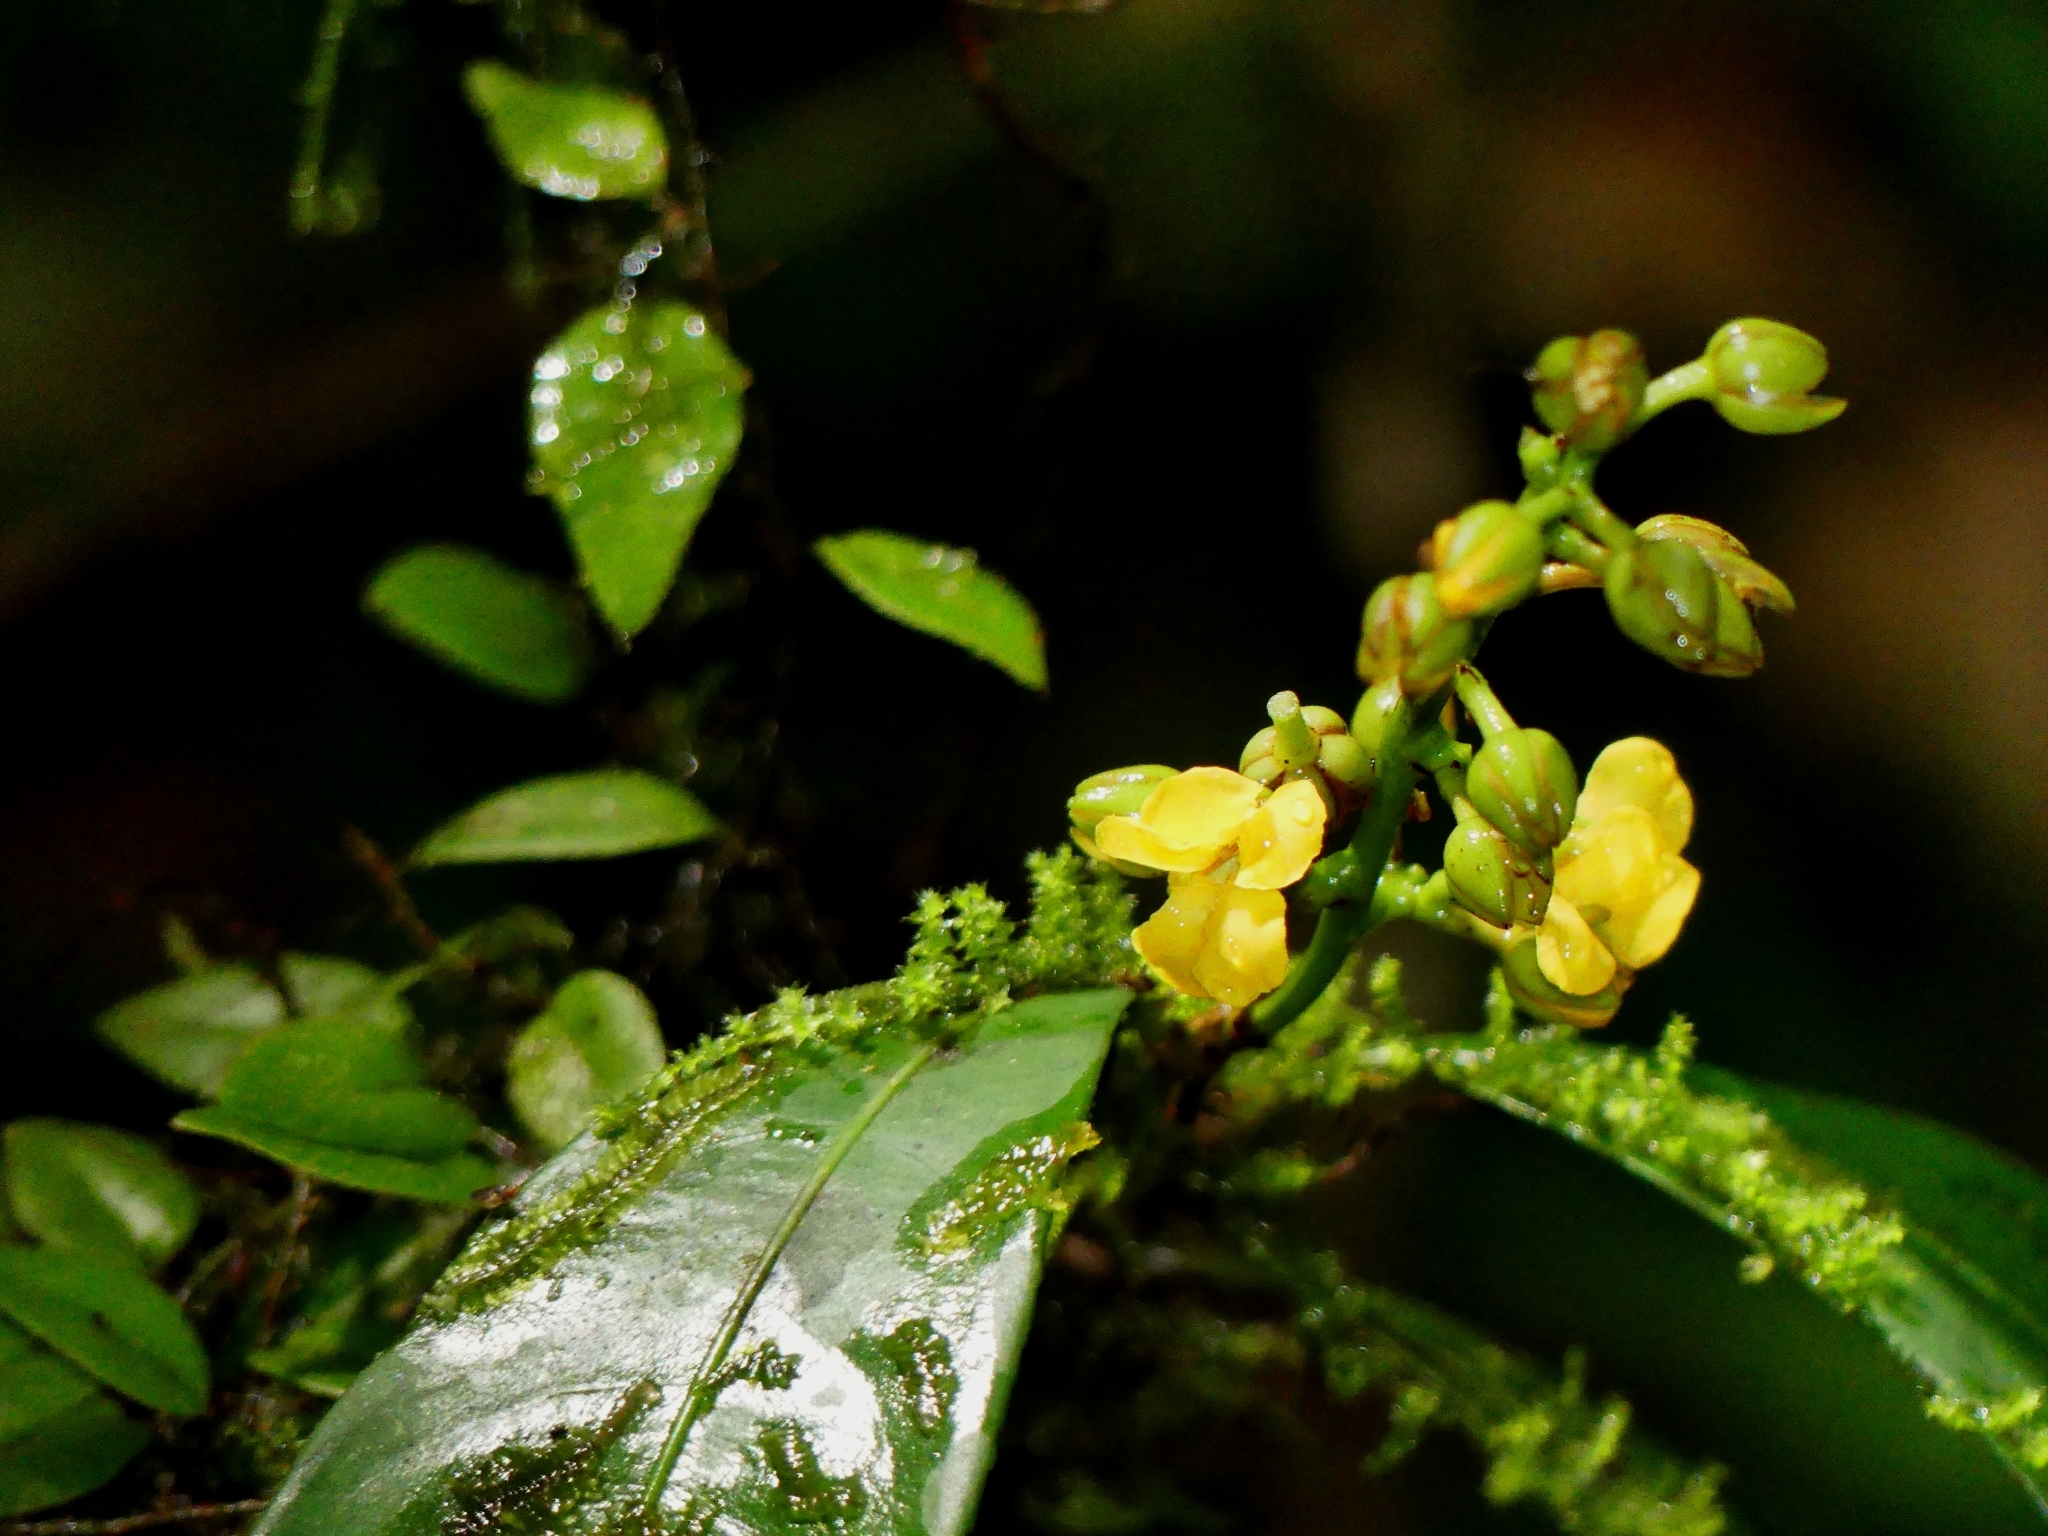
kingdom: Plantae
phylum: Tracheophyta
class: Magnoliopsida
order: Malpighiales
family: Ochnaceae
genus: Ouratea
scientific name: Ouratea
